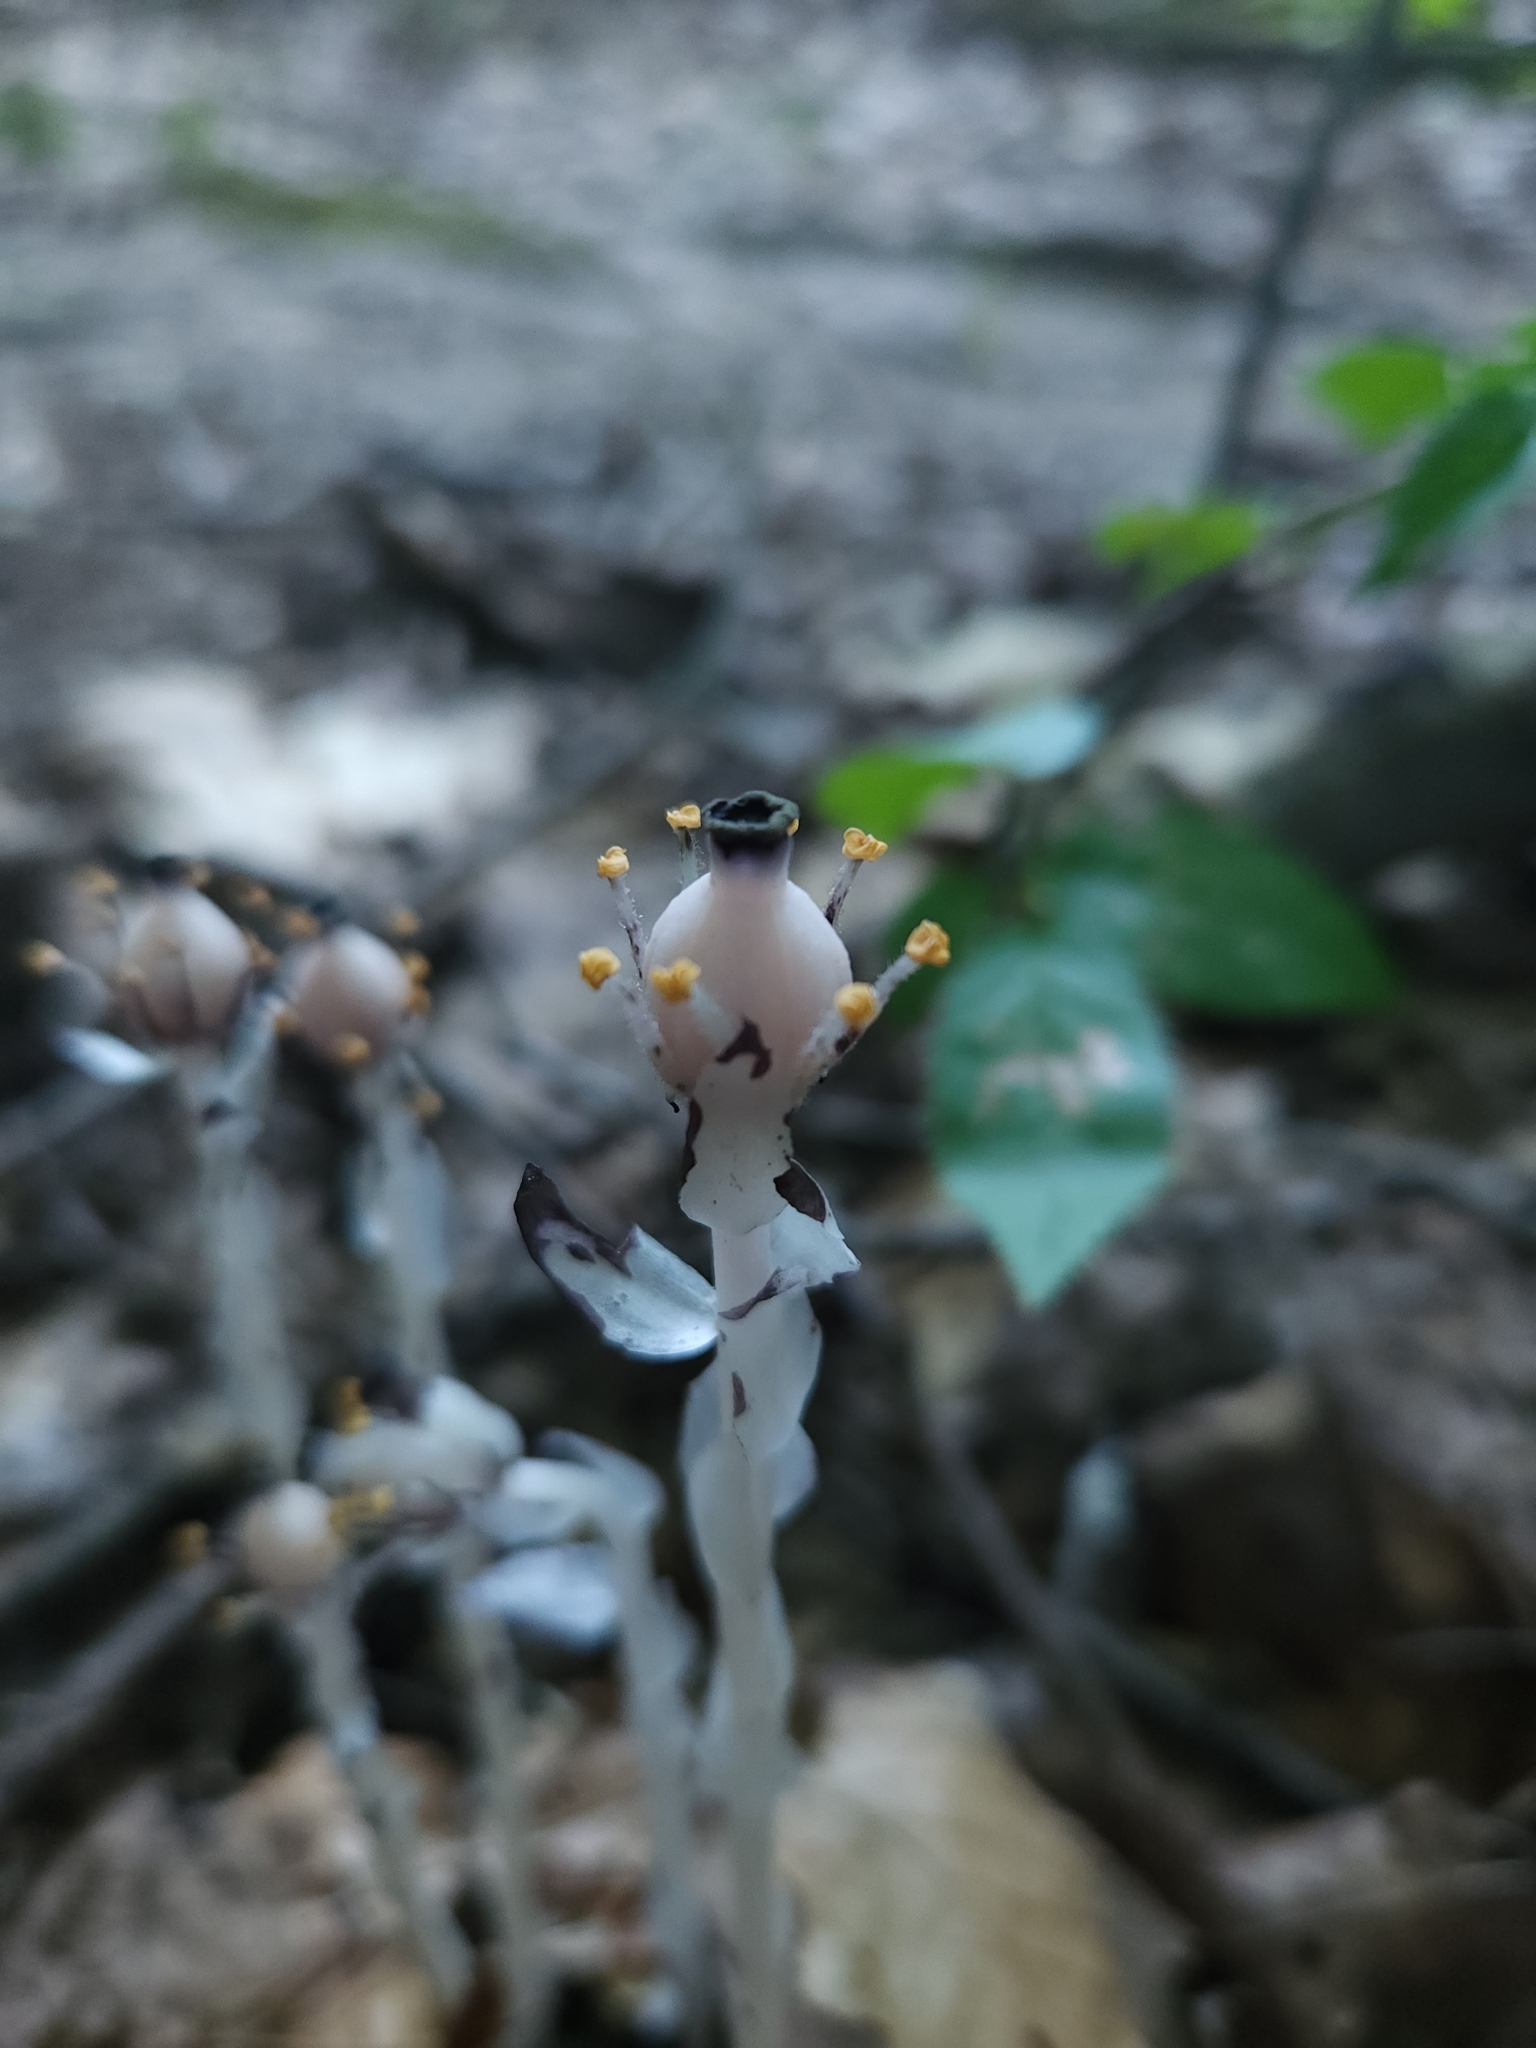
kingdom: Plantae
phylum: Tracheophyta
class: Magnoliopsida
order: Ericales
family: Ericaceae
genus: Monotropa
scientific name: Monotropa uniflora
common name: Convulsion root
